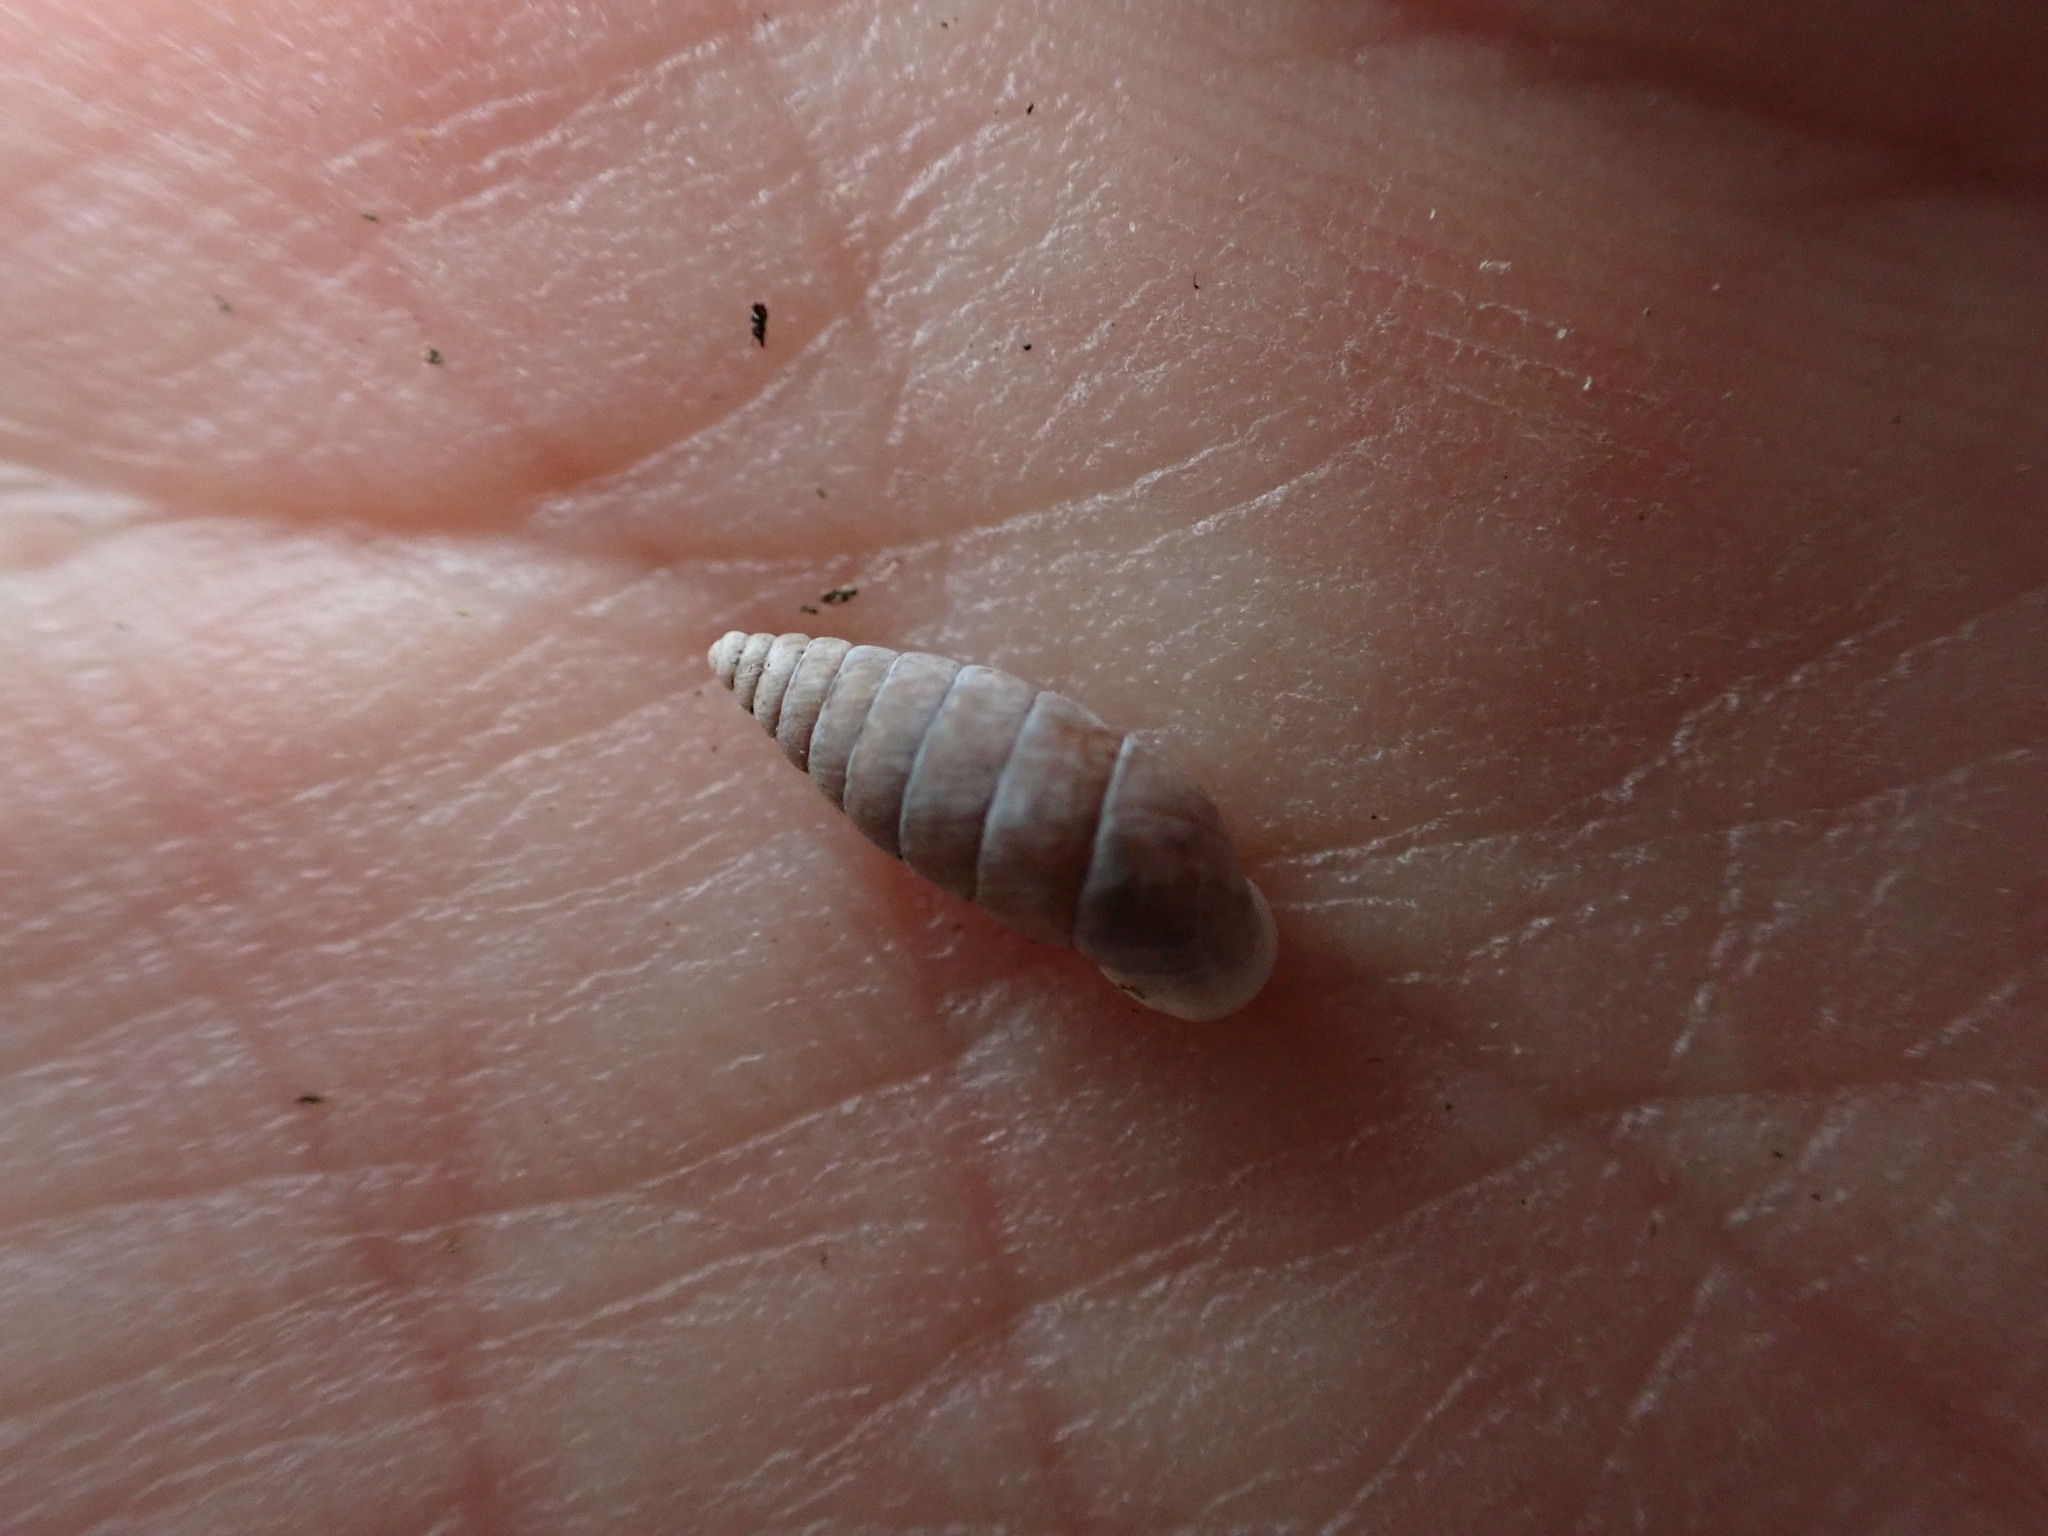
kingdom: Animalia
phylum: Mollusca
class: Gastropoda
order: Stylommatophora
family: Chondrinidae
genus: Granaria
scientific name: Granaria variabilis
